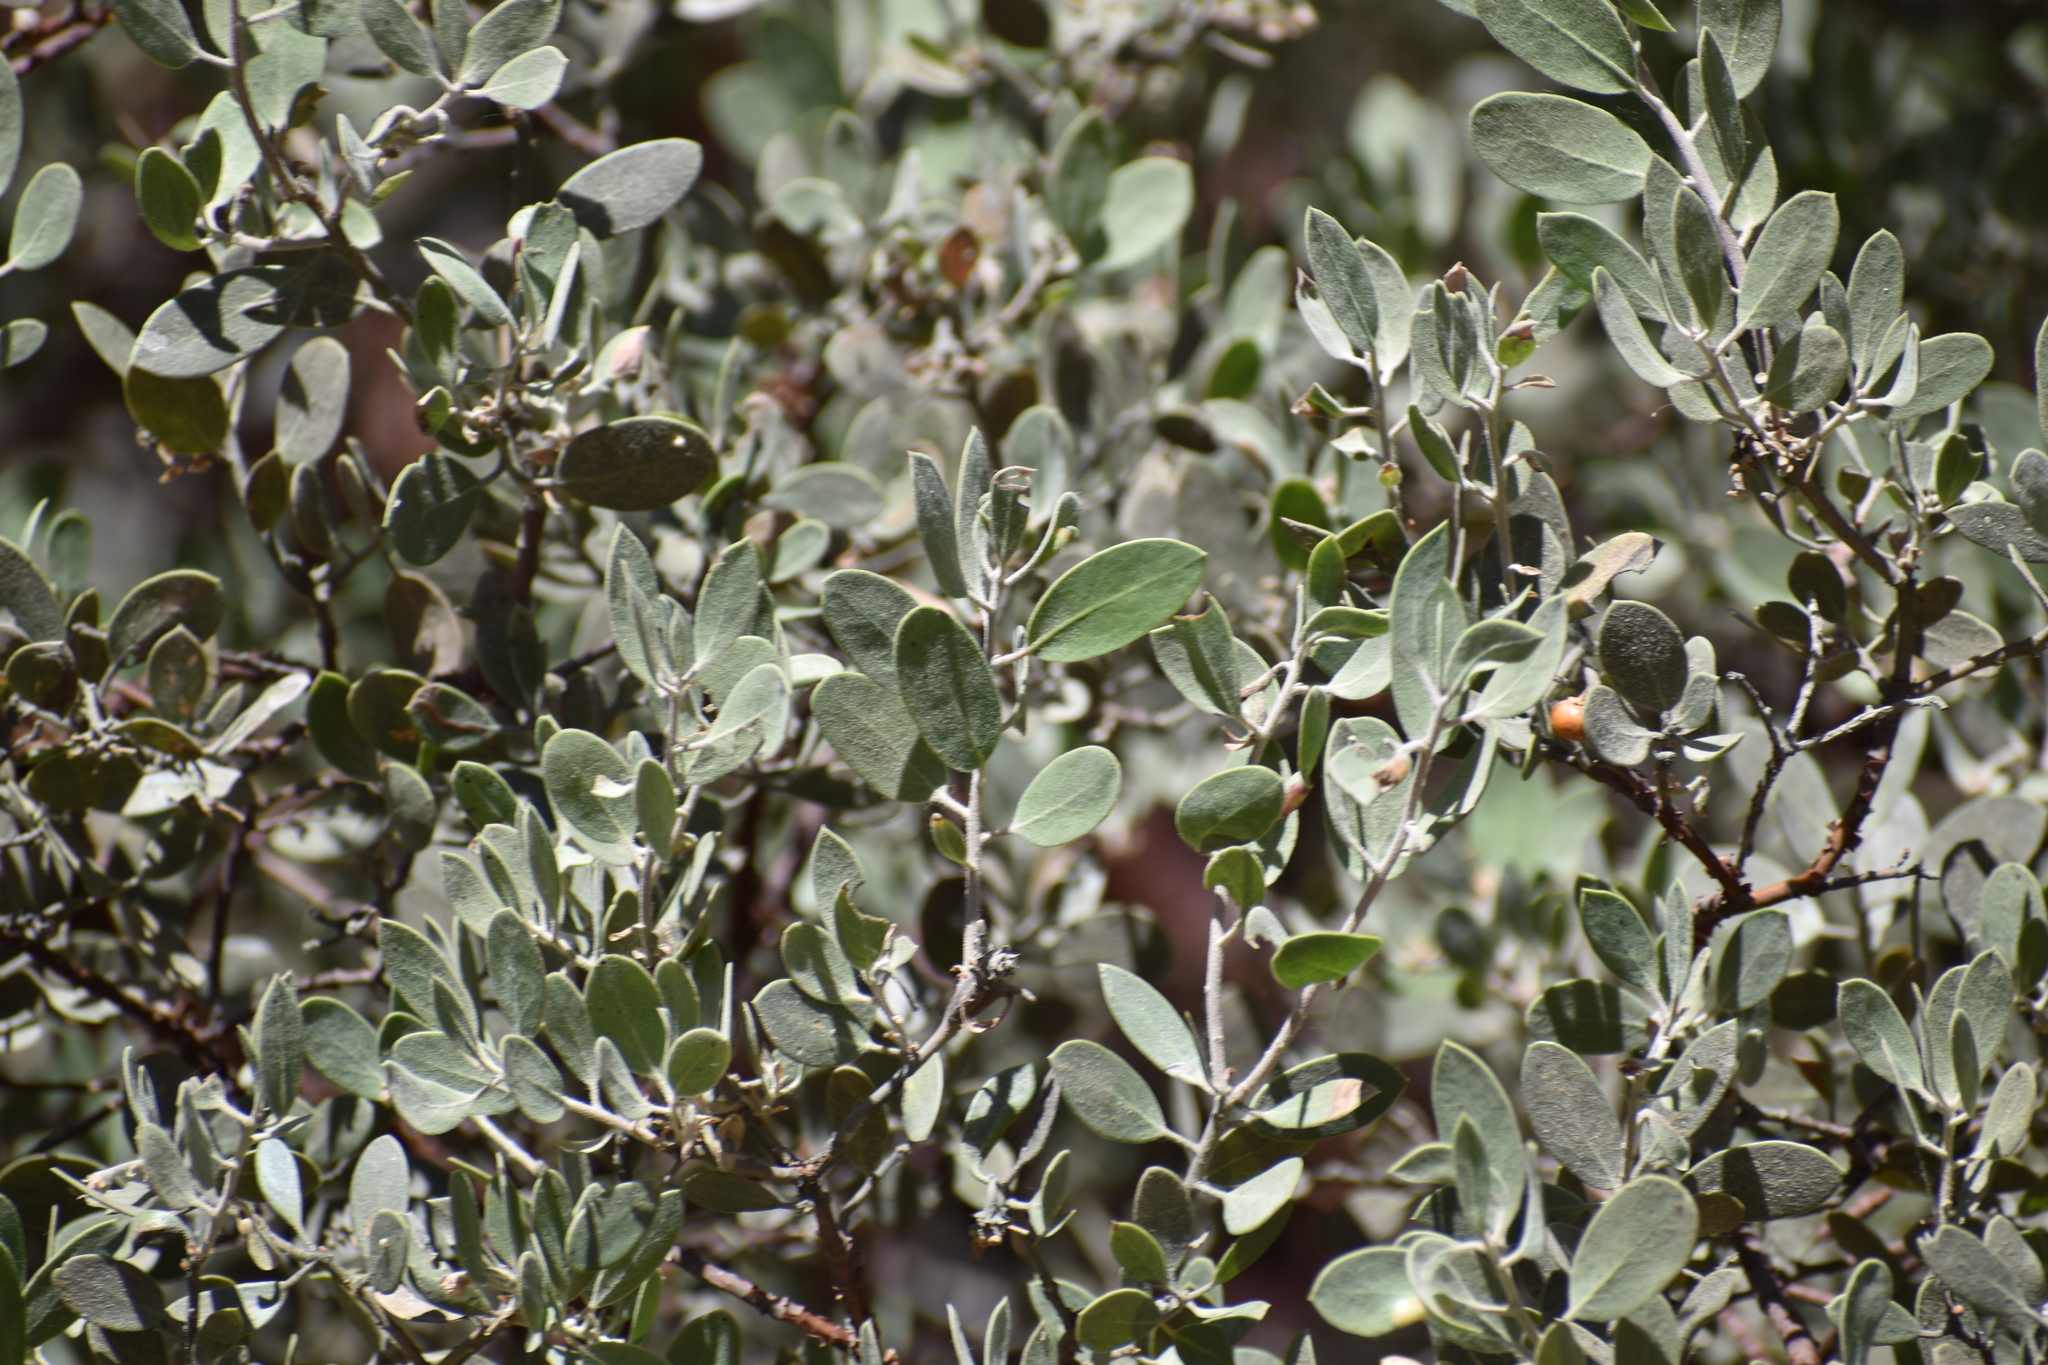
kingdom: Plantae
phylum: Tracheophyta
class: Magnoliopsida
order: Ericales
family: Ericaceae
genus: Arctostaphylos
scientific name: Arctostaphylos pungens
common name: Mexican manzanita
